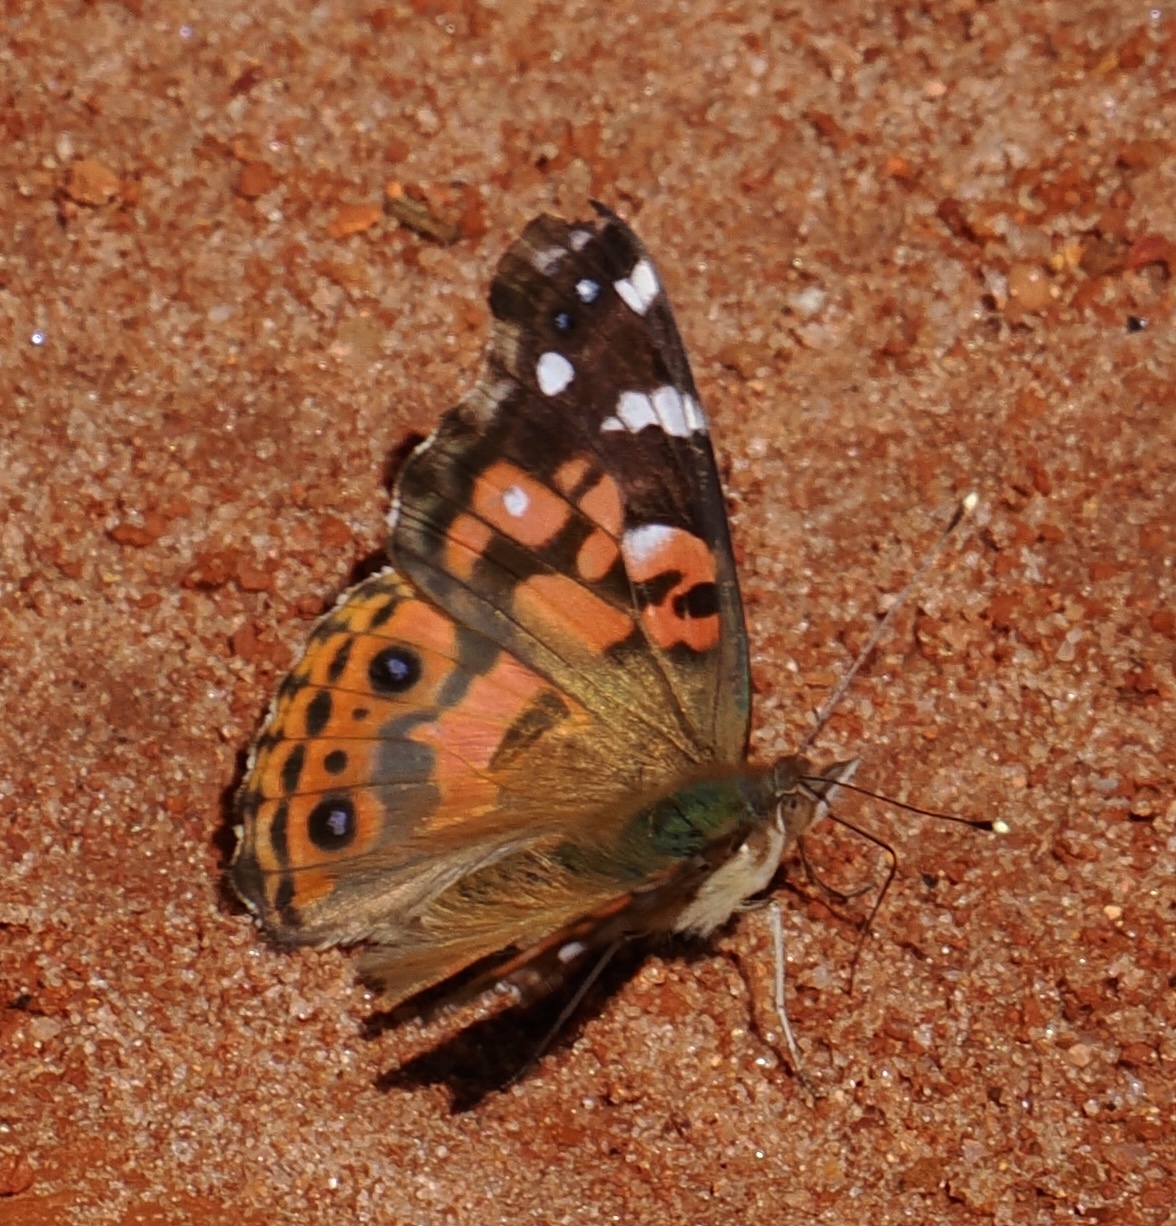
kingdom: Animalia
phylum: Arthropoda
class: Insecta
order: Lepidoptera
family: Nymphalidae
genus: Vanessa
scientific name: Vanessa braziliensis
